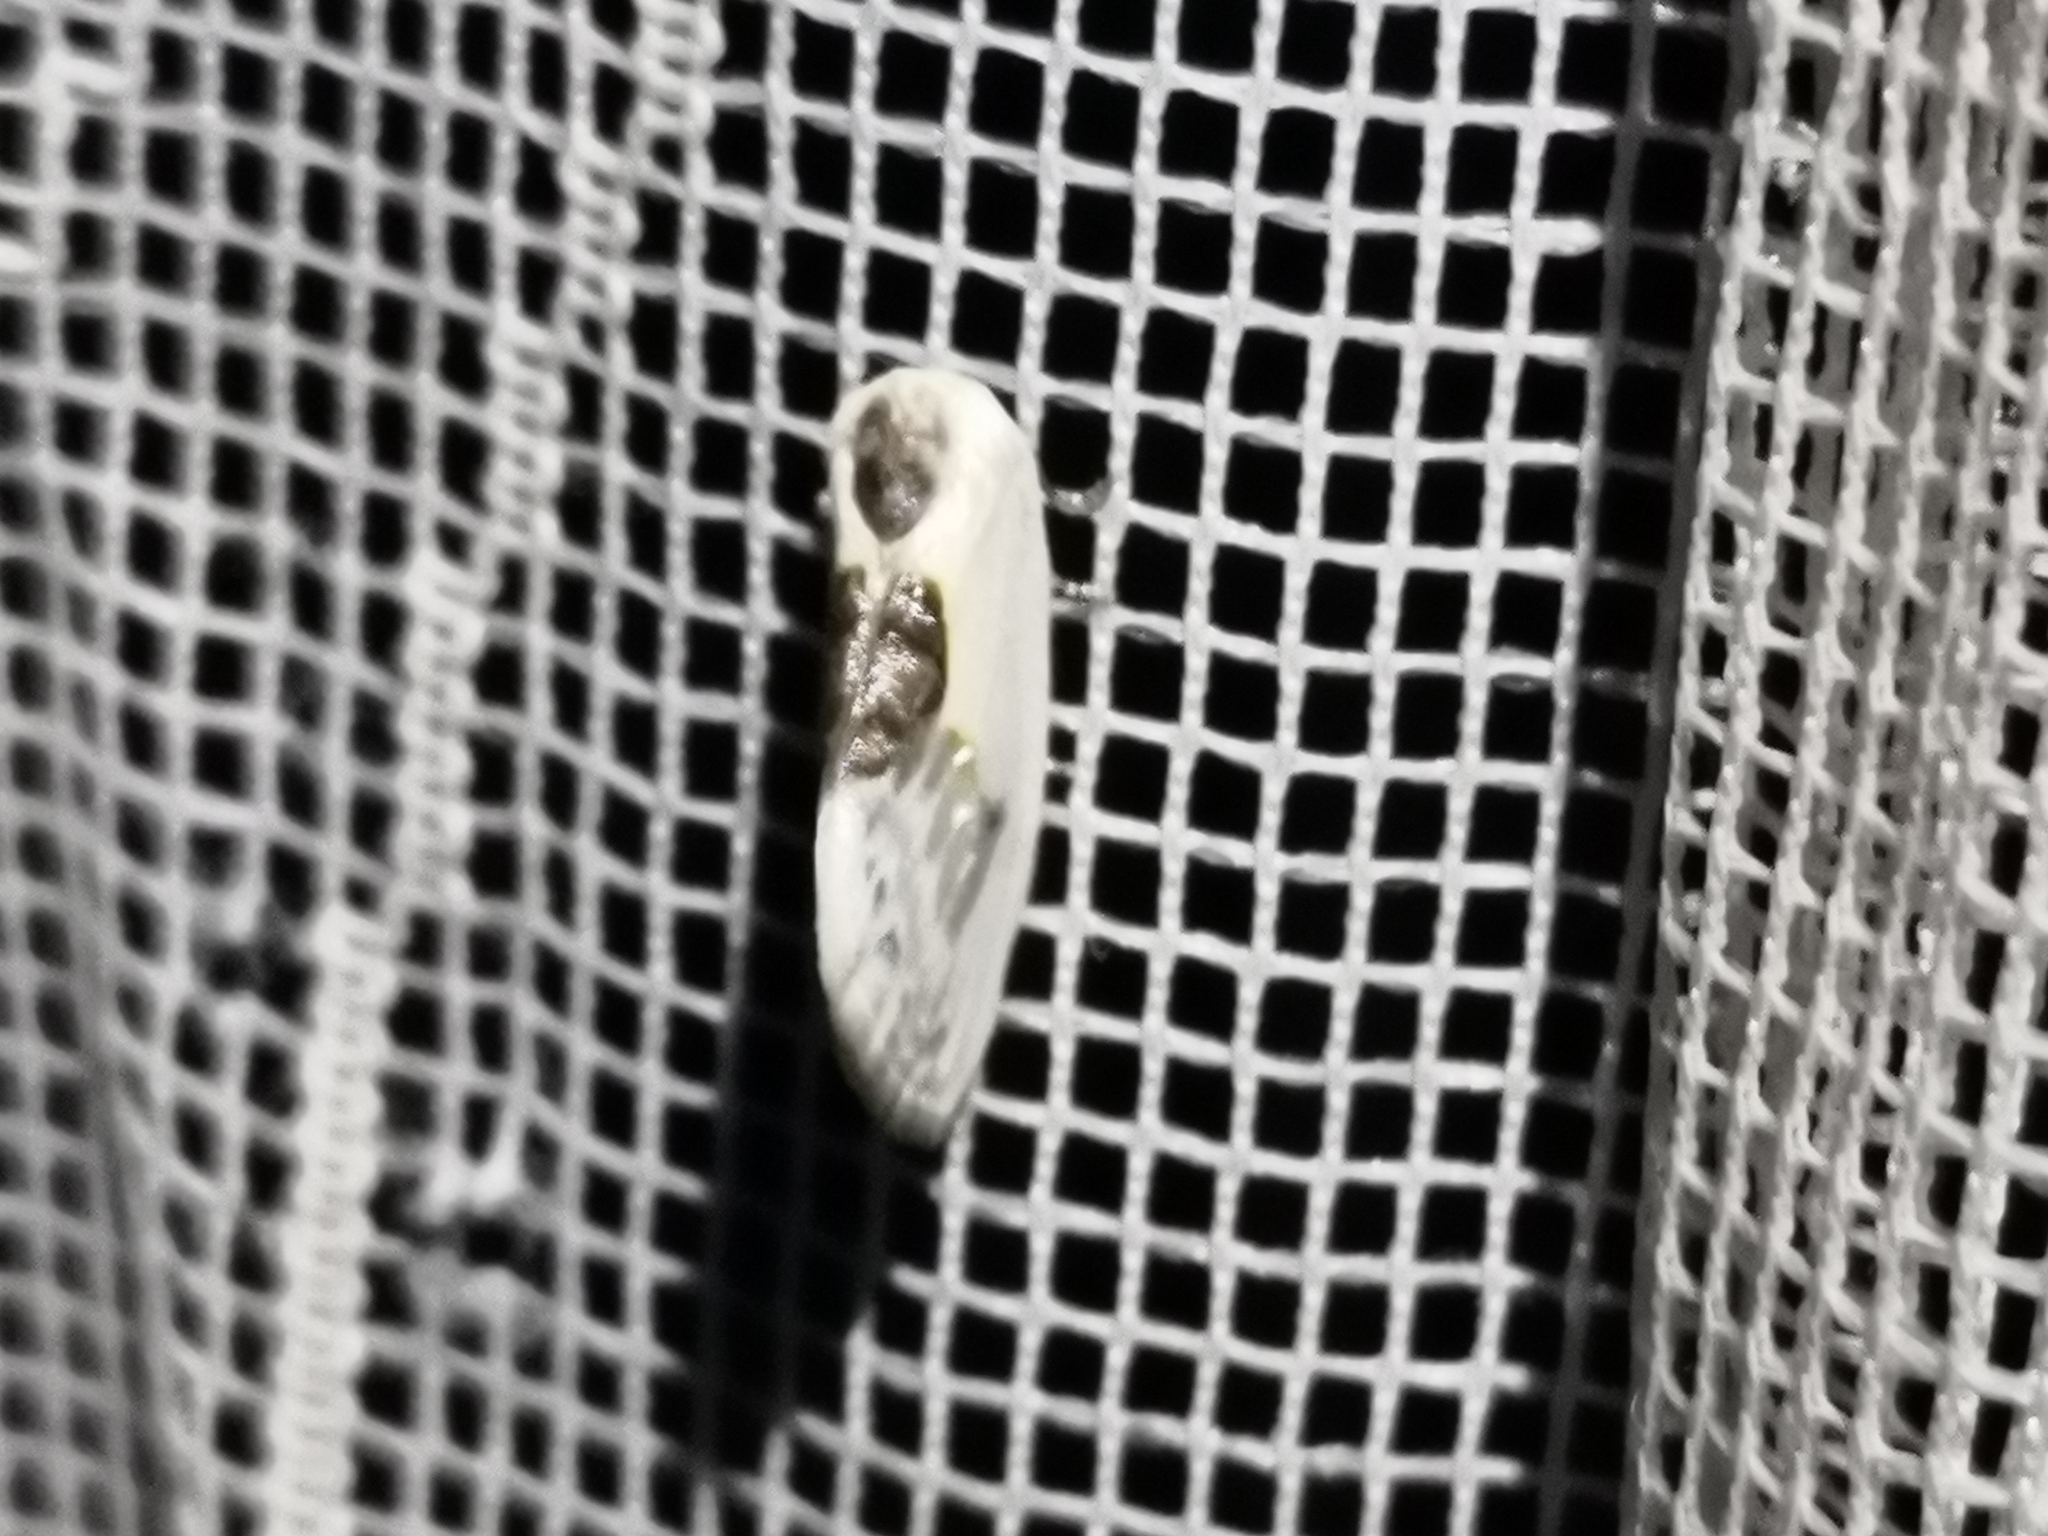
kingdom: Animalia
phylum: Arthropoda
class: Insecta
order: Lepidoptera
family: Drepanidae
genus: Cilix
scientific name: Cilix glaucata
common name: Chinese character
